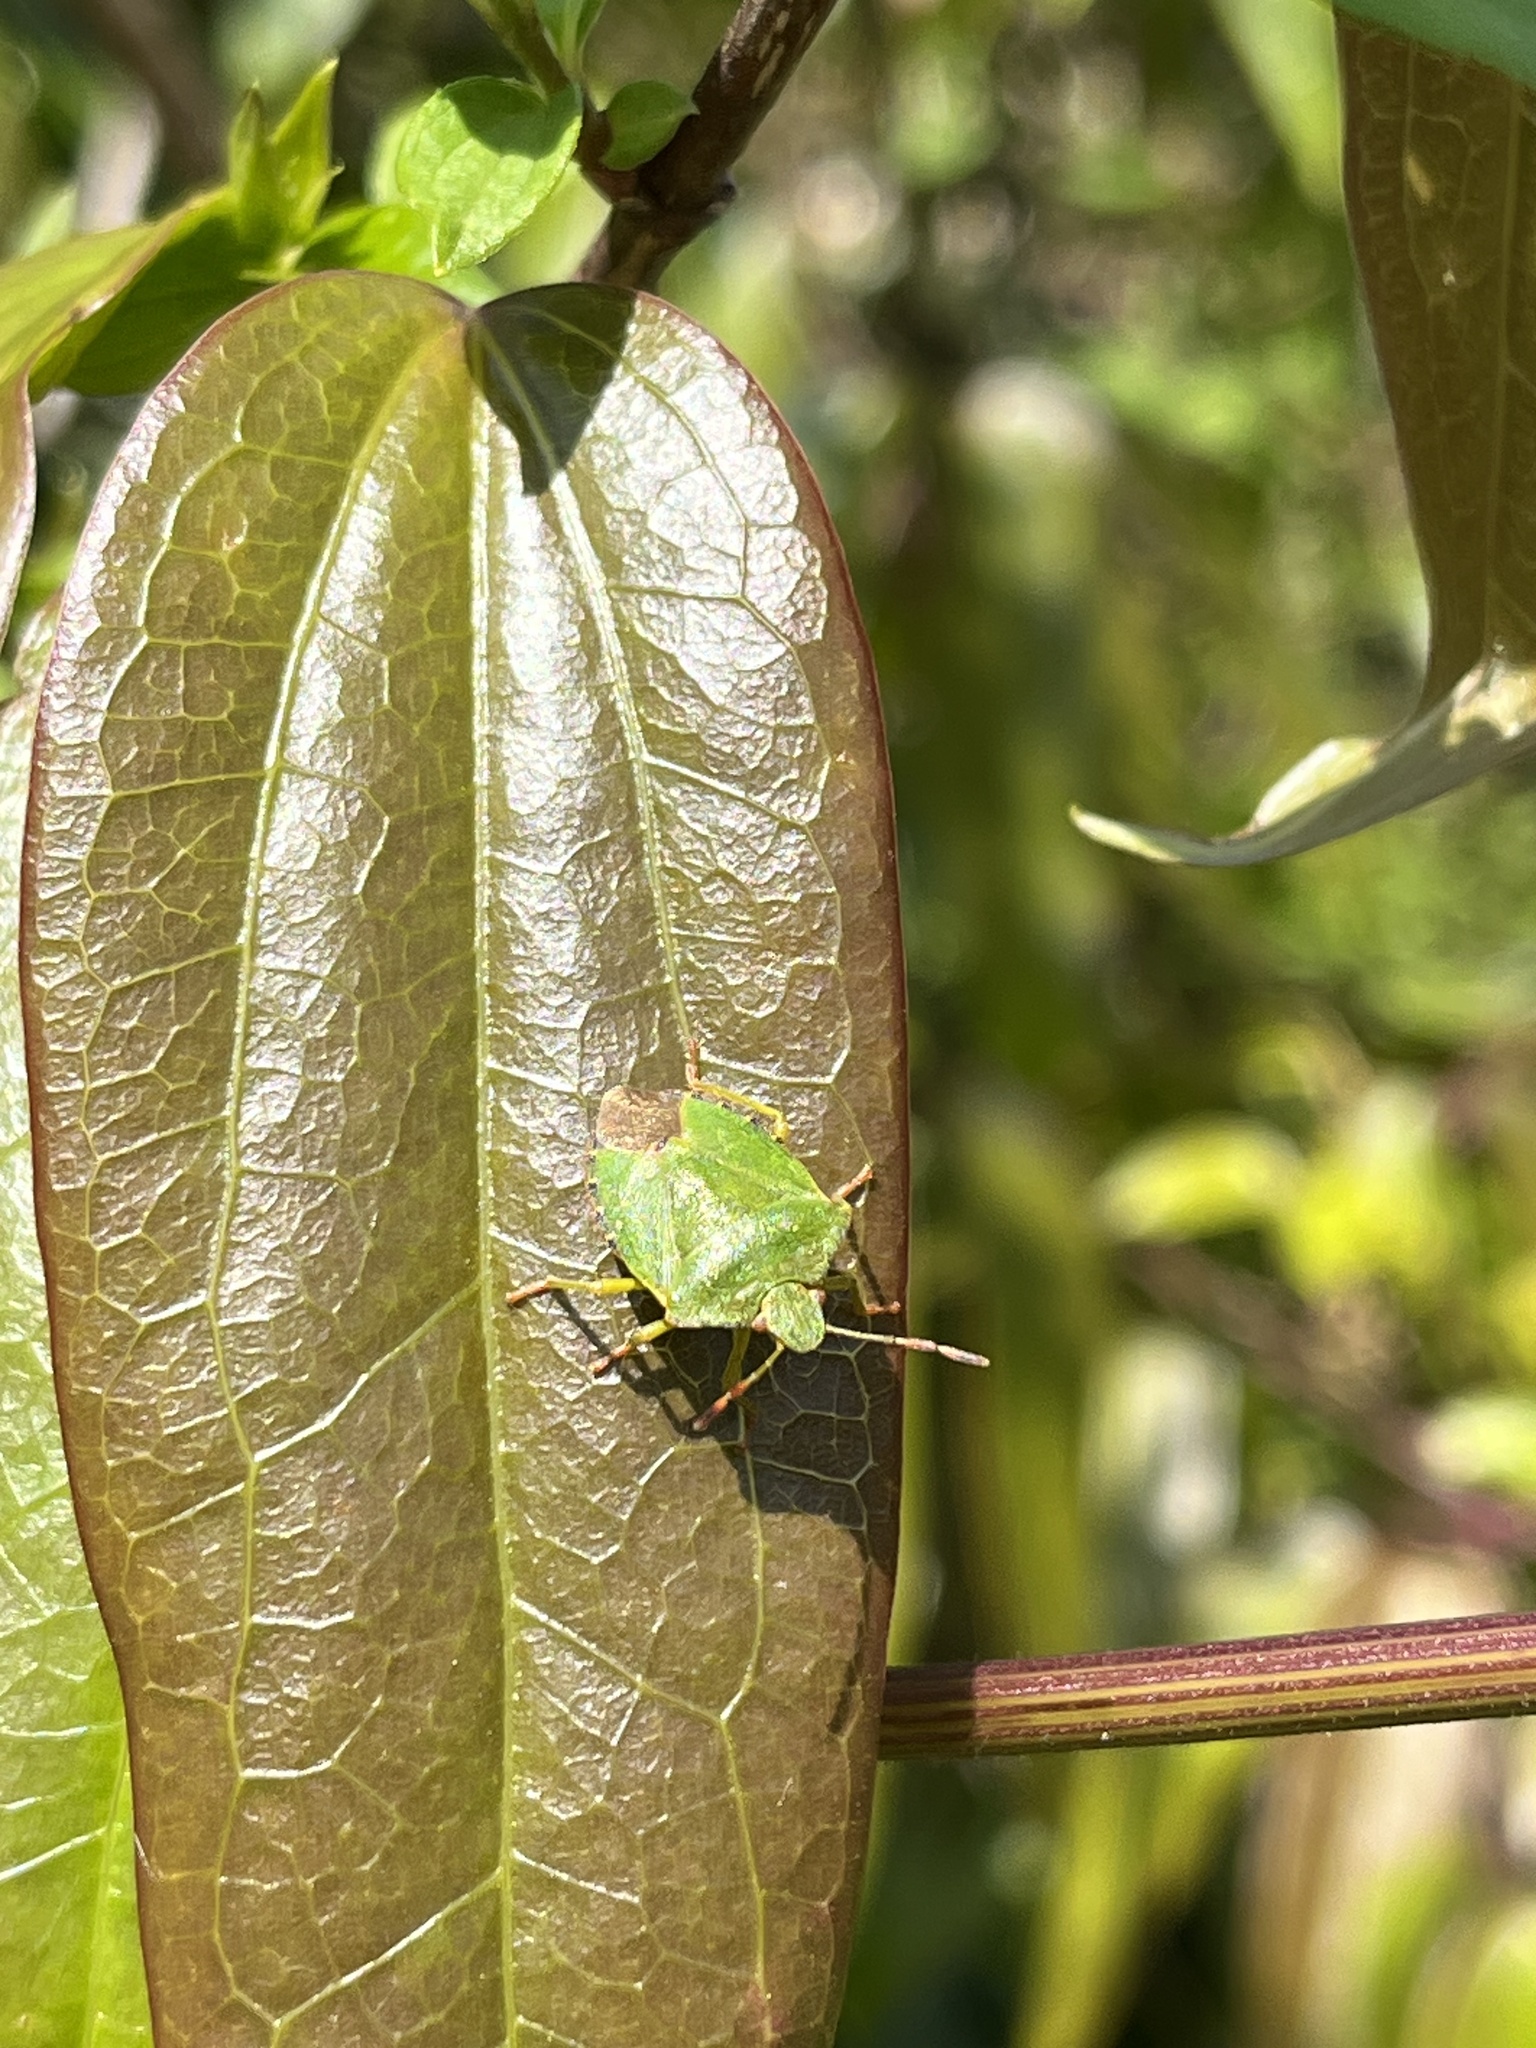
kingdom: Animalia
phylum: Arthropoda
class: Insecta
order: Hemiptera
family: Pentatomidae
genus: Palomena
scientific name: Palomena prasina
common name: Green shieldbug
